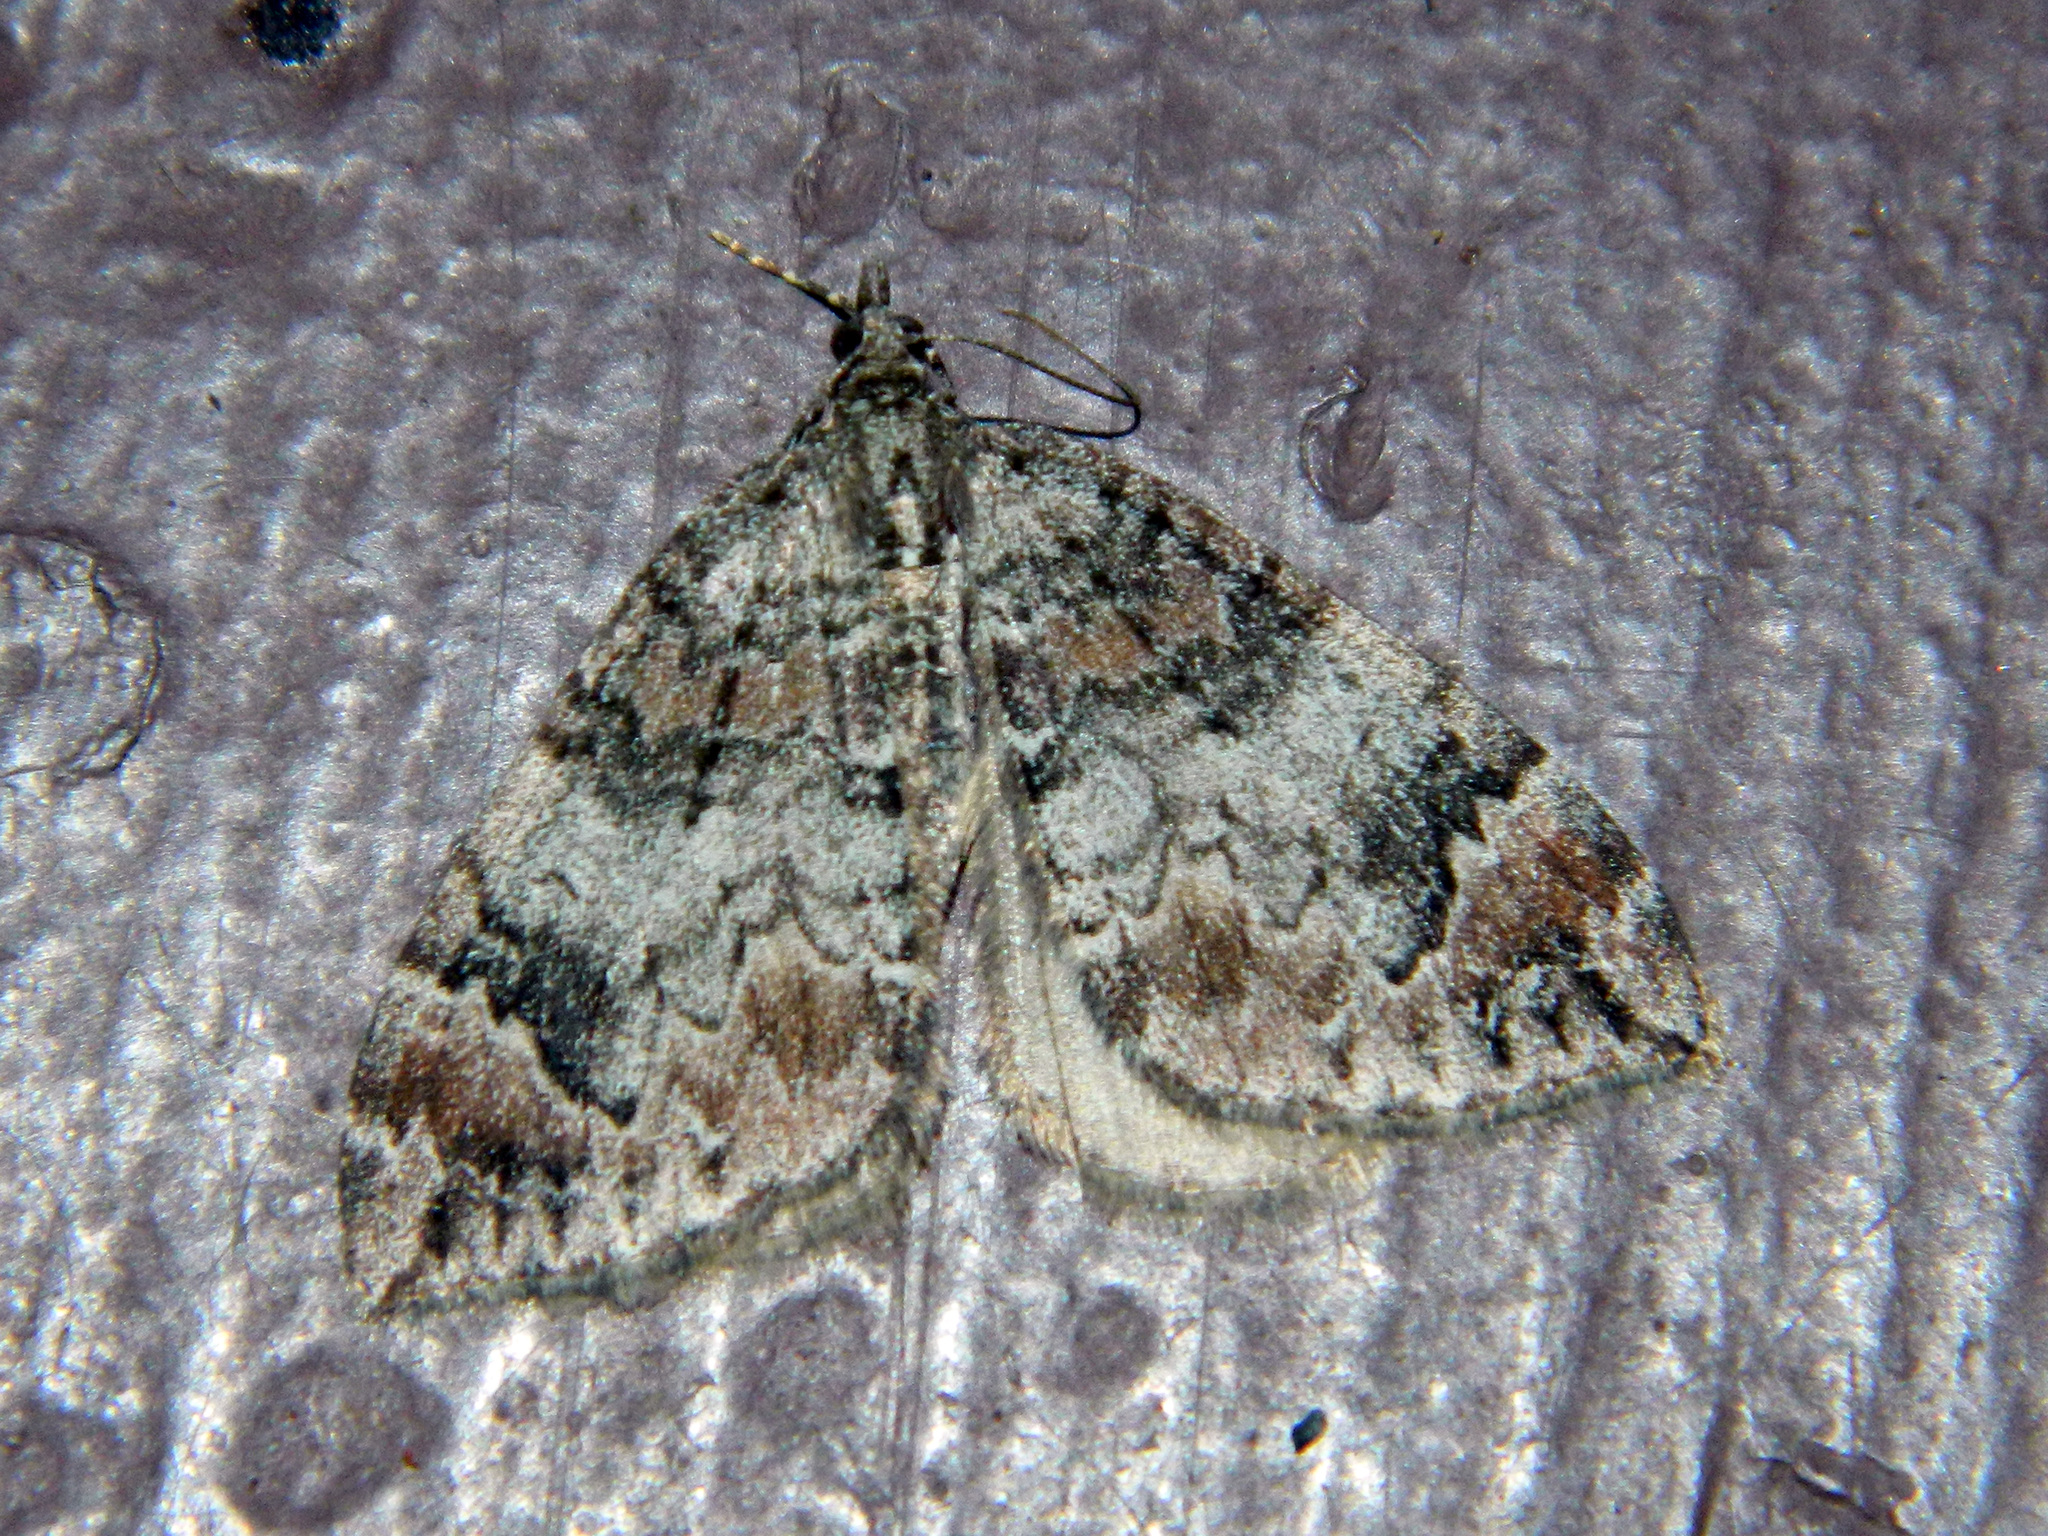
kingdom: Animalia
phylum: Arthropoda
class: Insecta
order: Lepidoptera
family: Geometridae
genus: Dysstroma
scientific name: Dysstroma citrata
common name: Dark marbled carpet
